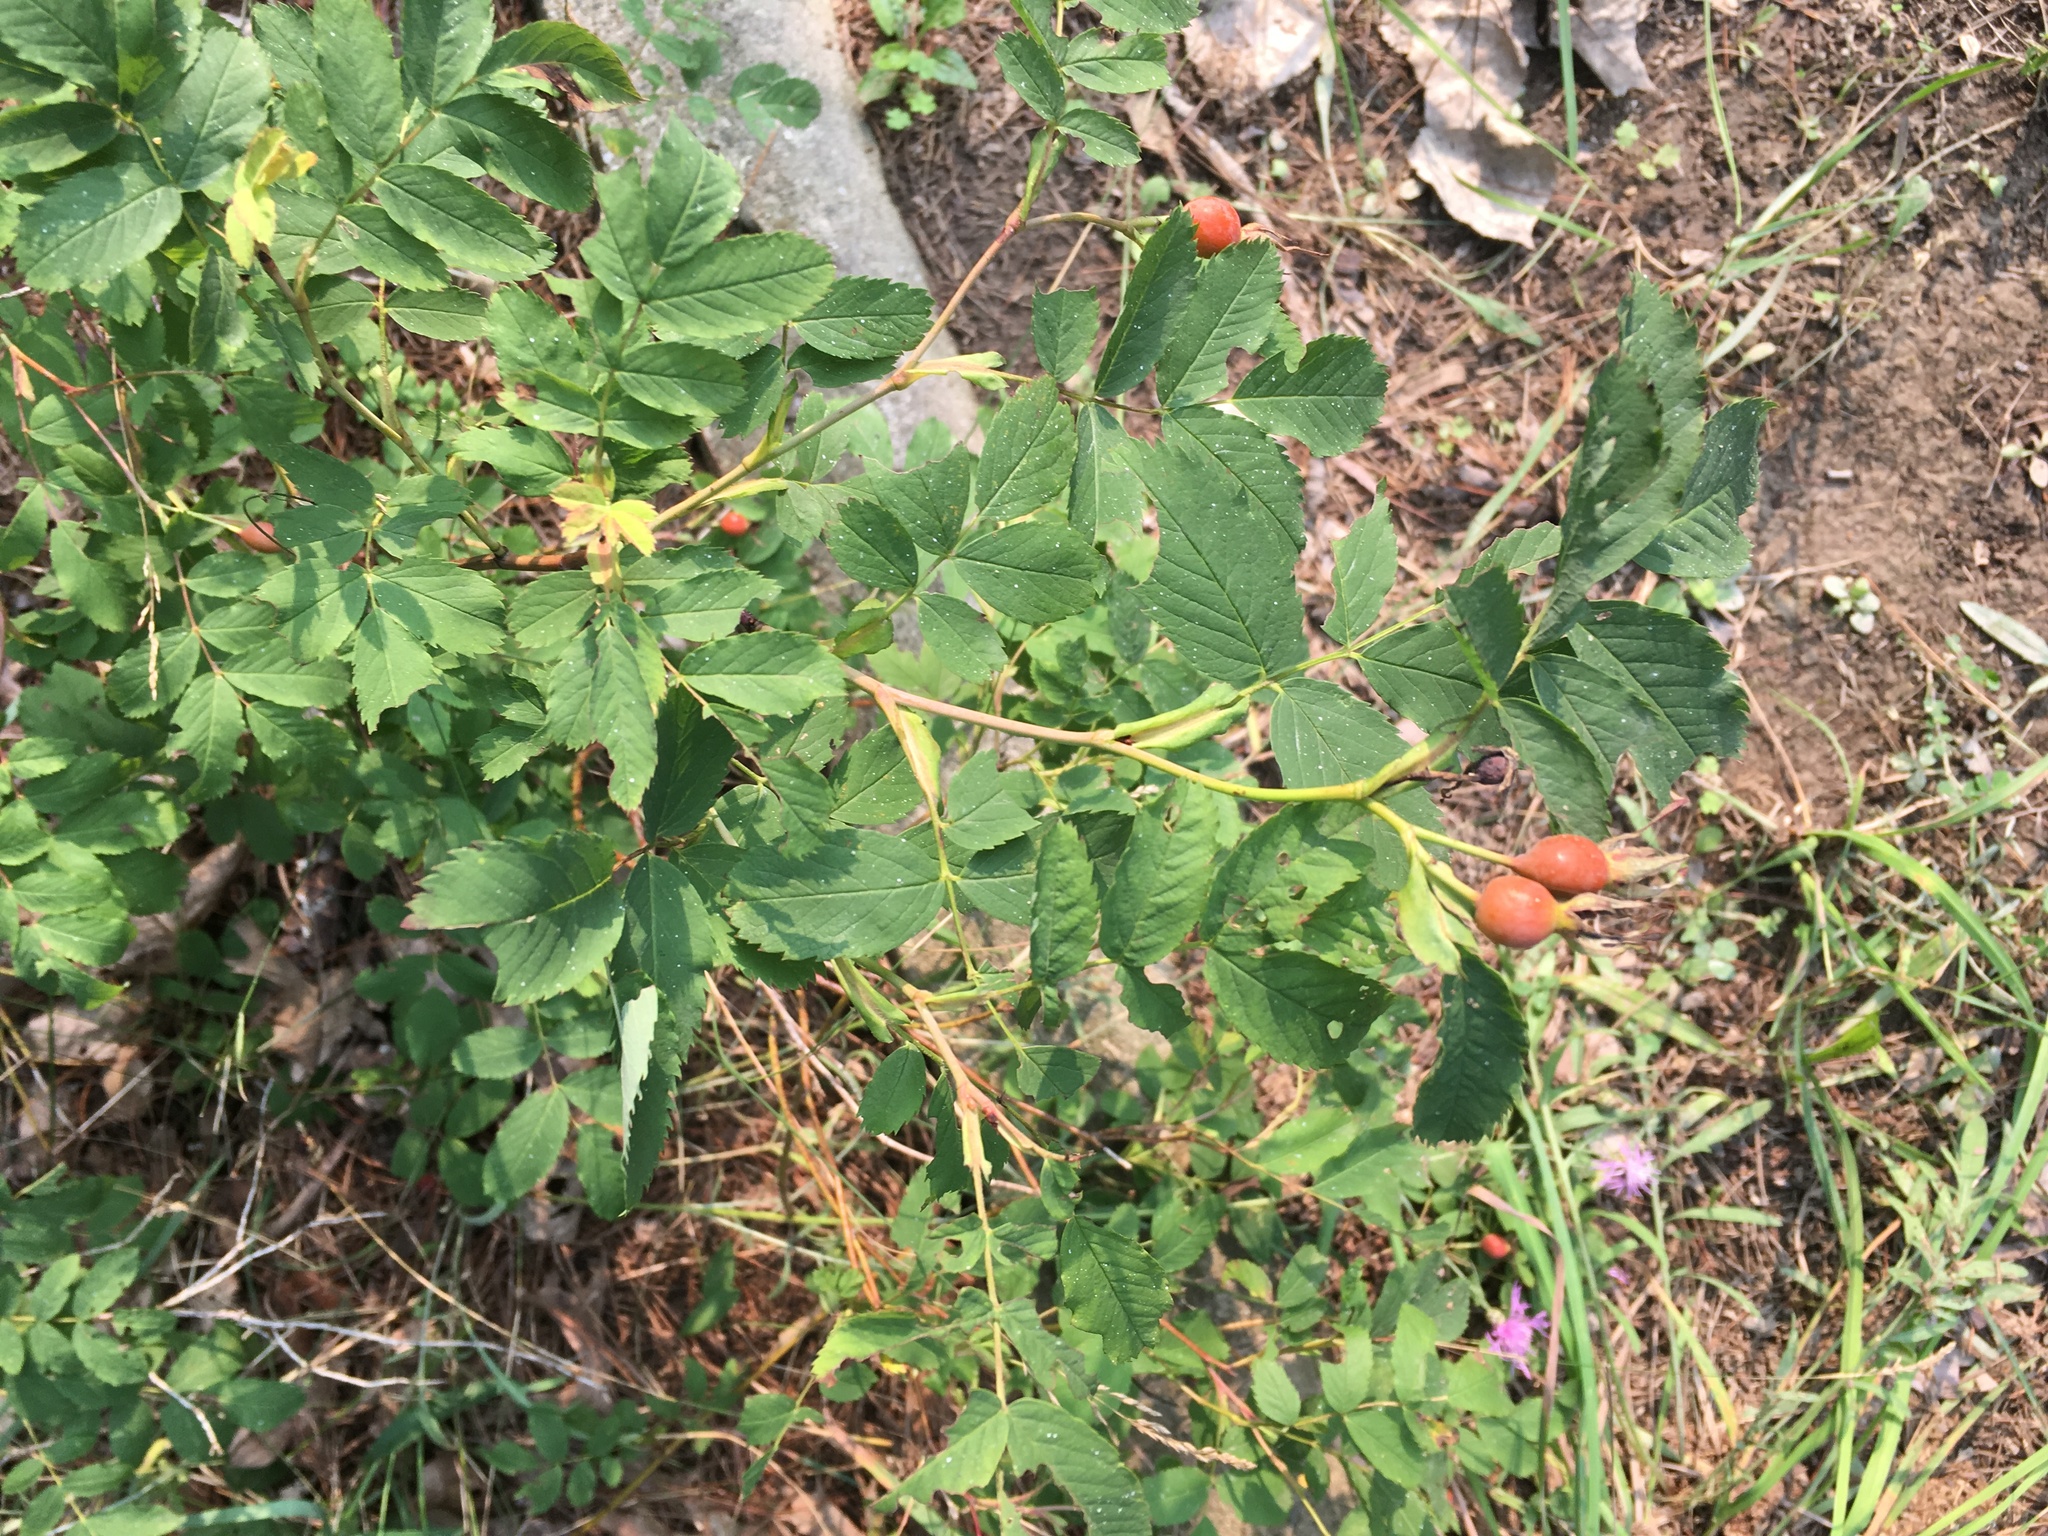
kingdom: Plantae
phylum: Tracheophyta
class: Magnoliopsida
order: Rosales
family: Rosaceae
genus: Rosa
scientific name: Rosa blanda
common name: Smooth rose
